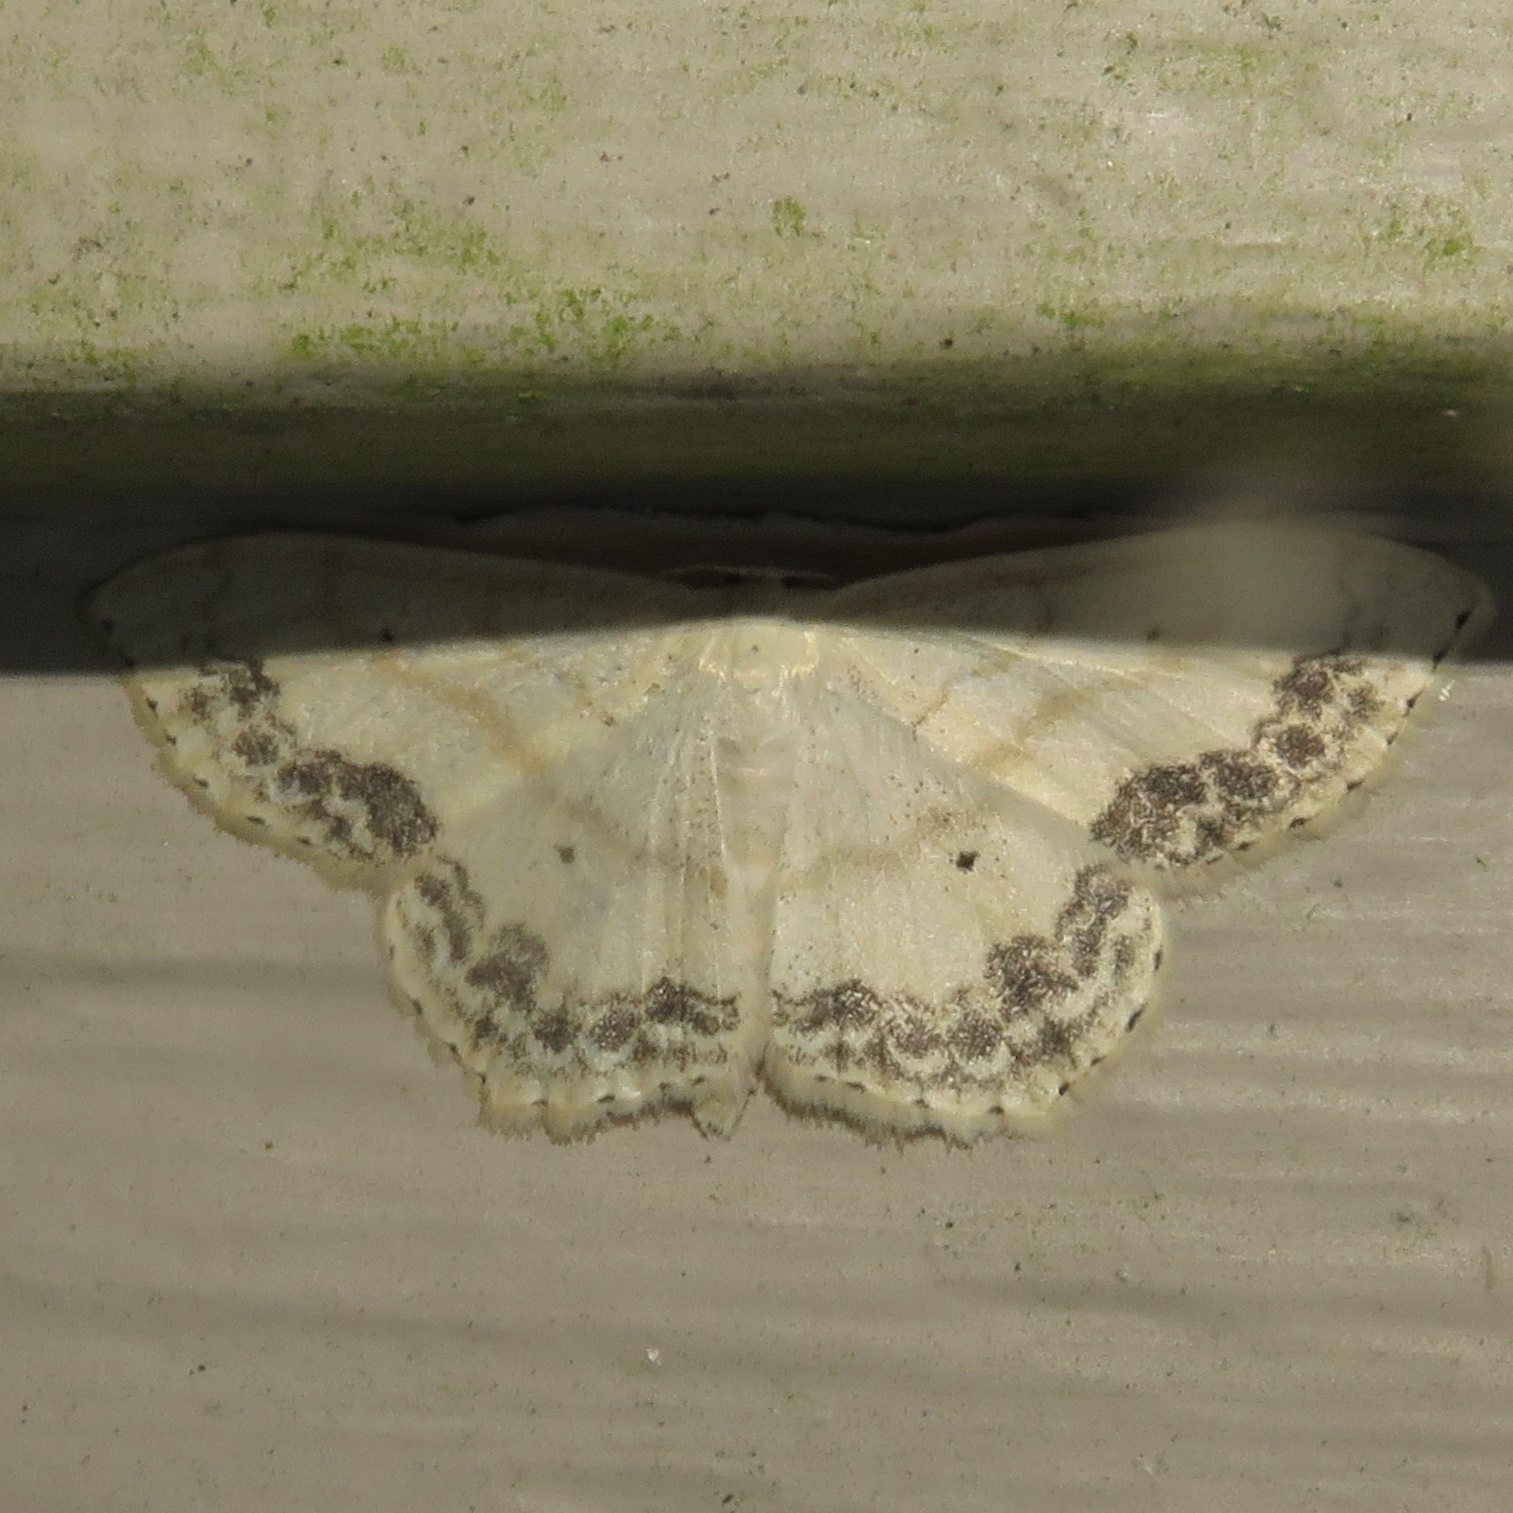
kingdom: Animalia
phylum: Arthropoda
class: Insecta
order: Lepidoptera
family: Geometridae
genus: Scopula
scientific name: Scopula limboundata
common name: Large lace border
